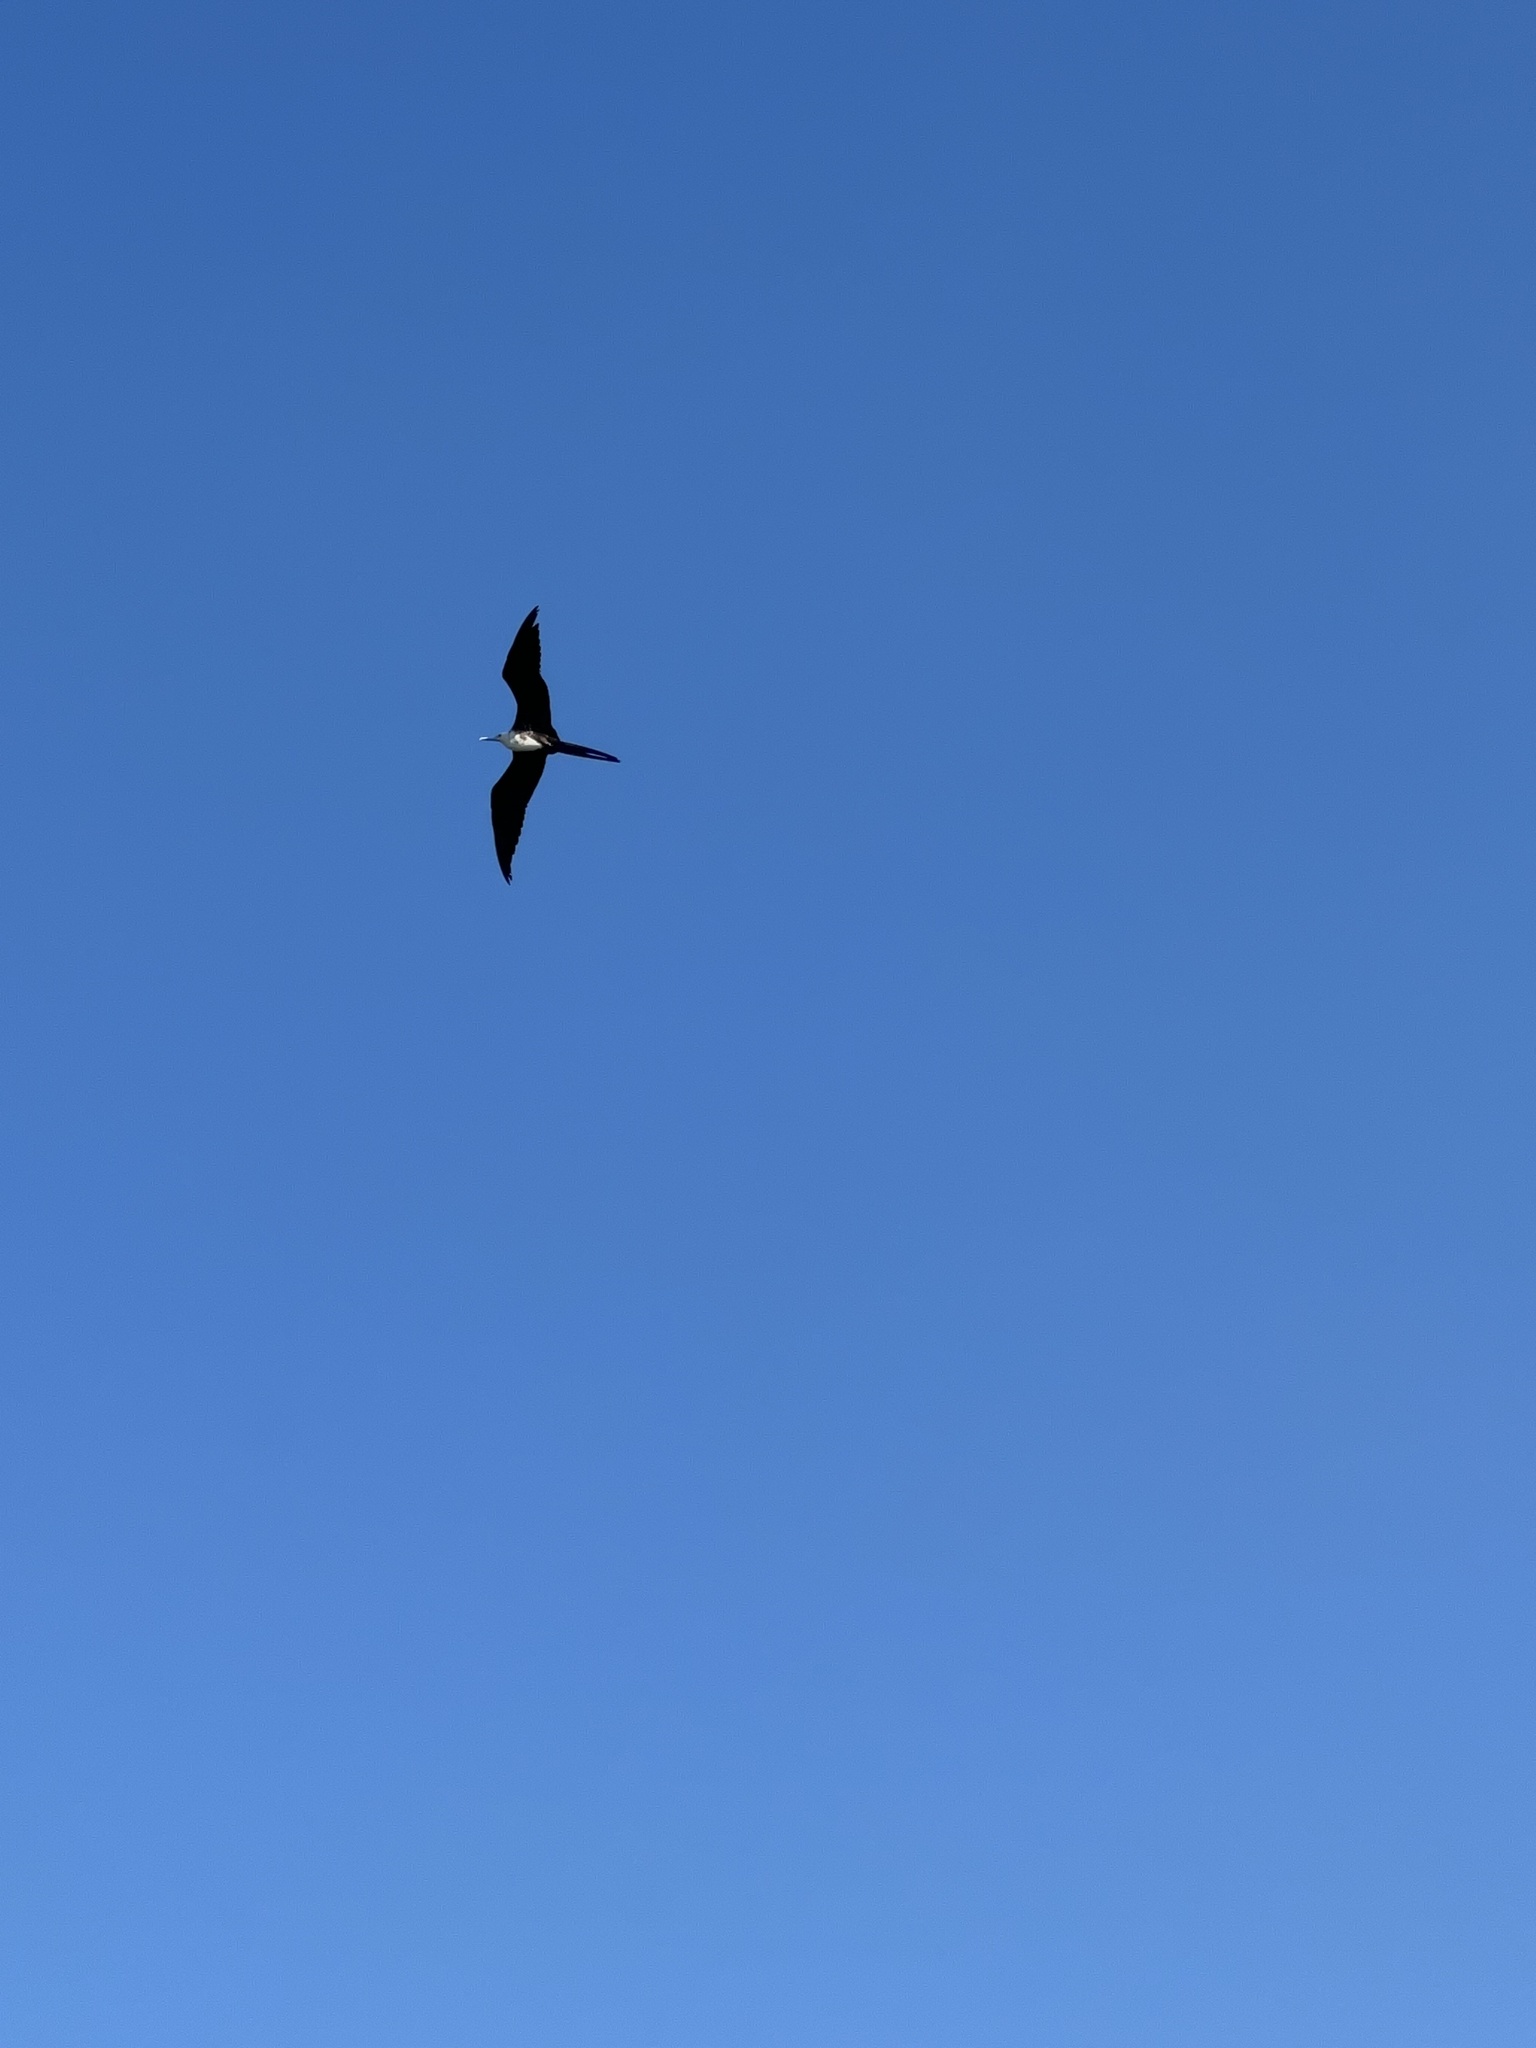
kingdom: Animalia
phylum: Chordata
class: Aves
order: Suliformes
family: Fregatidae
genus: Fregata
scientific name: Fregata magnificens
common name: Magnificent frigatebird
